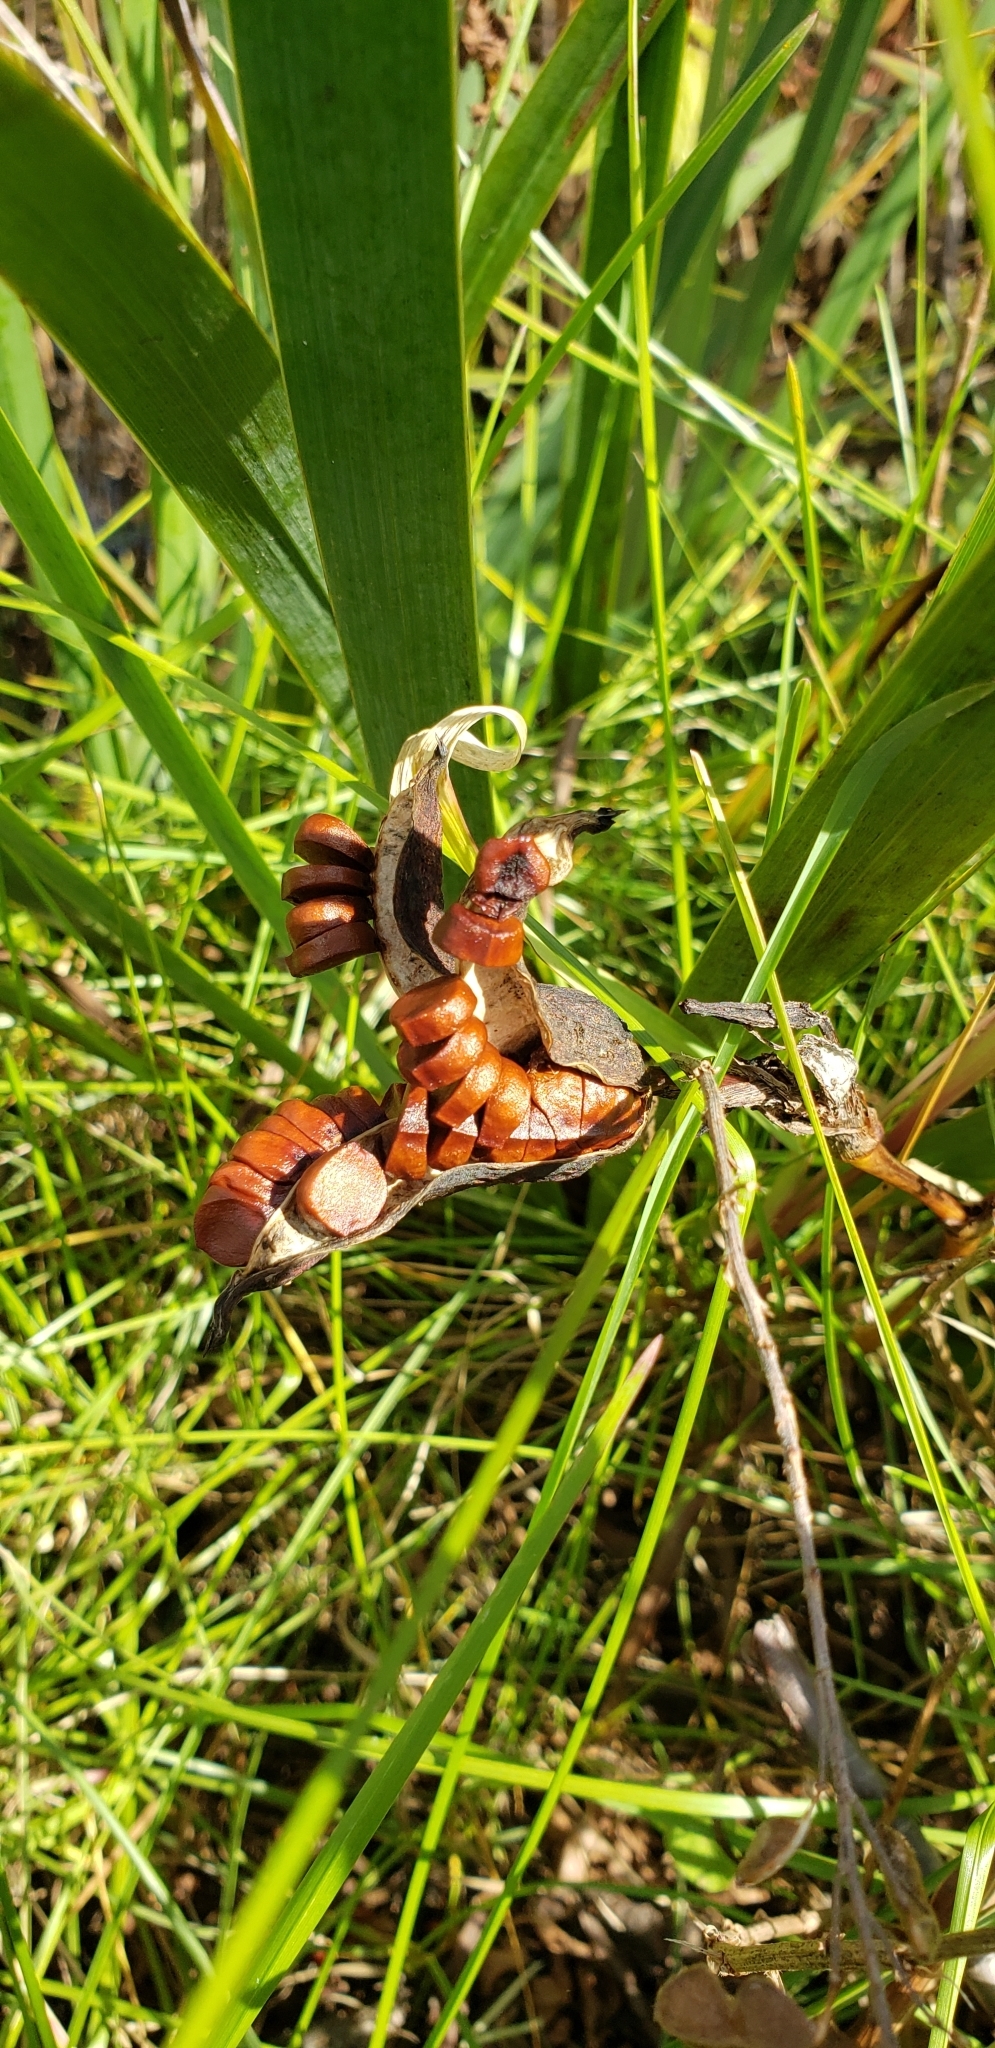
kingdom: Plantae
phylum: Tracheophyta
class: Liliopsida
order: Asparagales
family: Iridaceae
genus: Iris
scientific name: Iris pseudacorus
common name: Yellow flag
